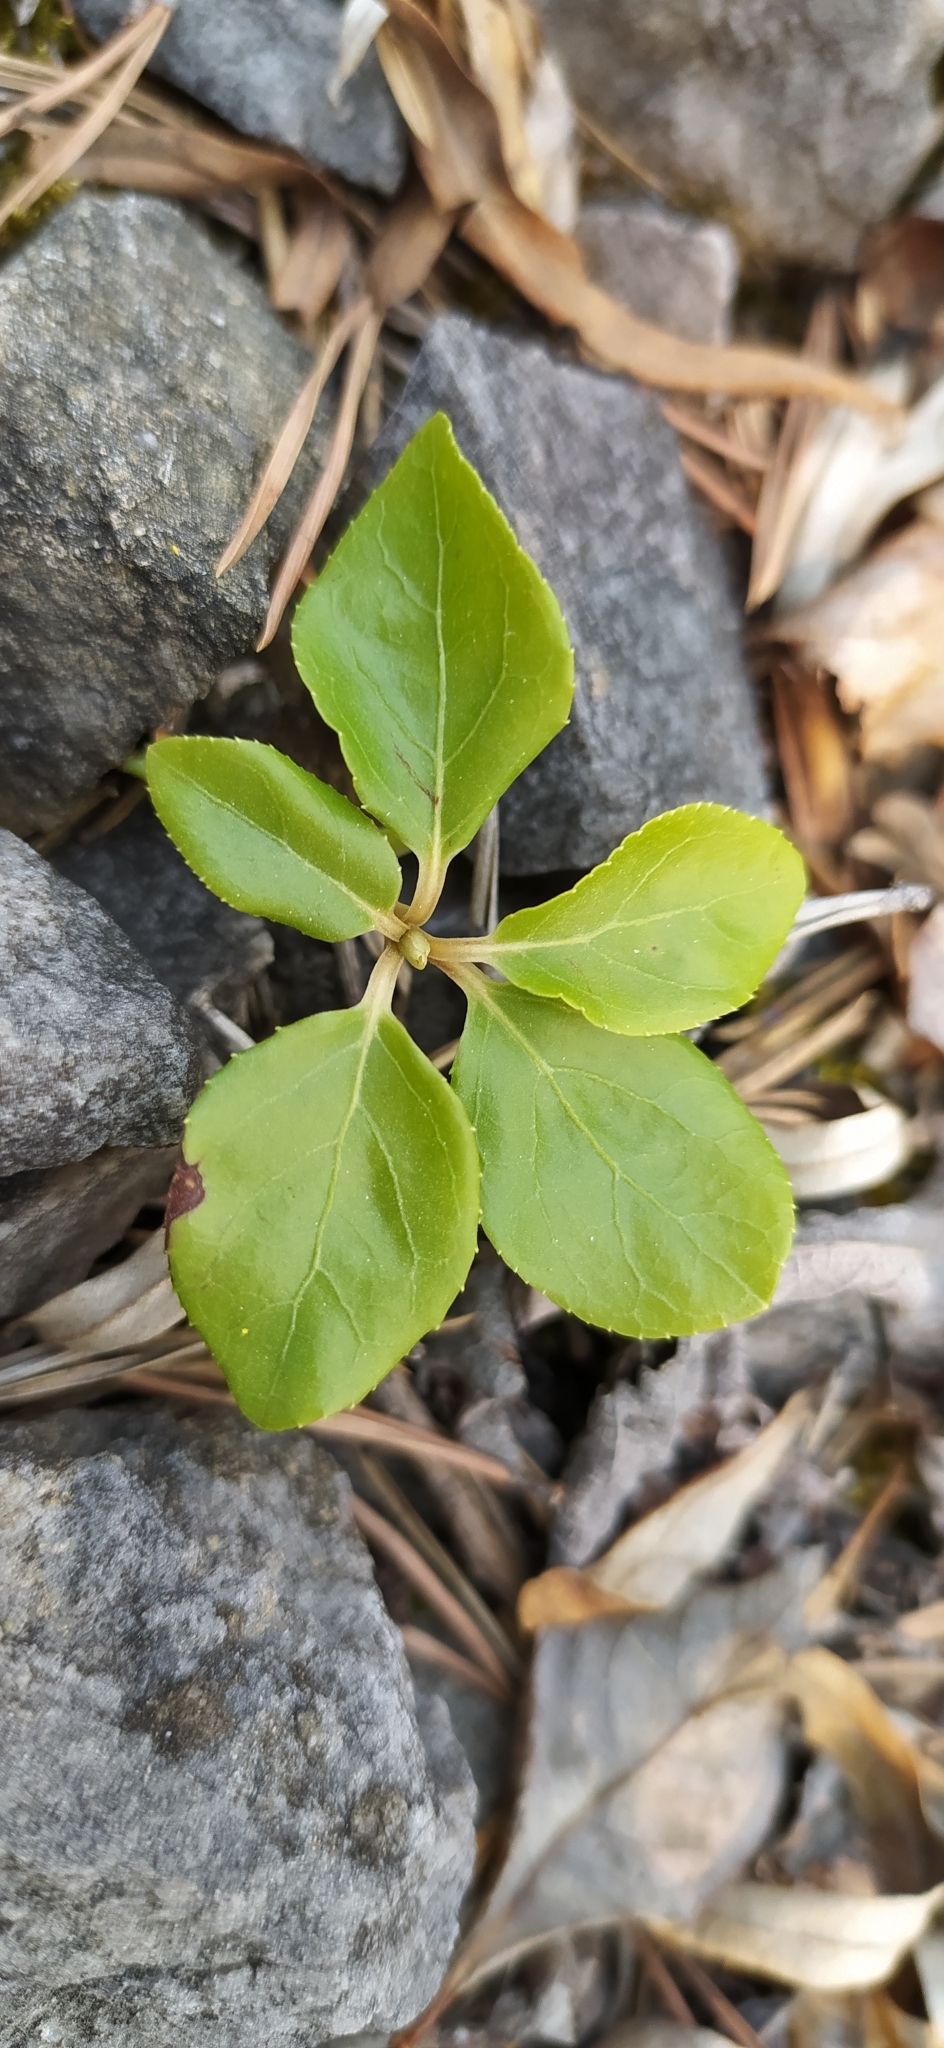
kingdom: Plantae
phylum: Tracheophyta
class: Magnoliopsida
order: Ericales
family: Ericaceae
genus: Orthilia
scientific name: Orthilia secunda
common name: One-sided orthilia
